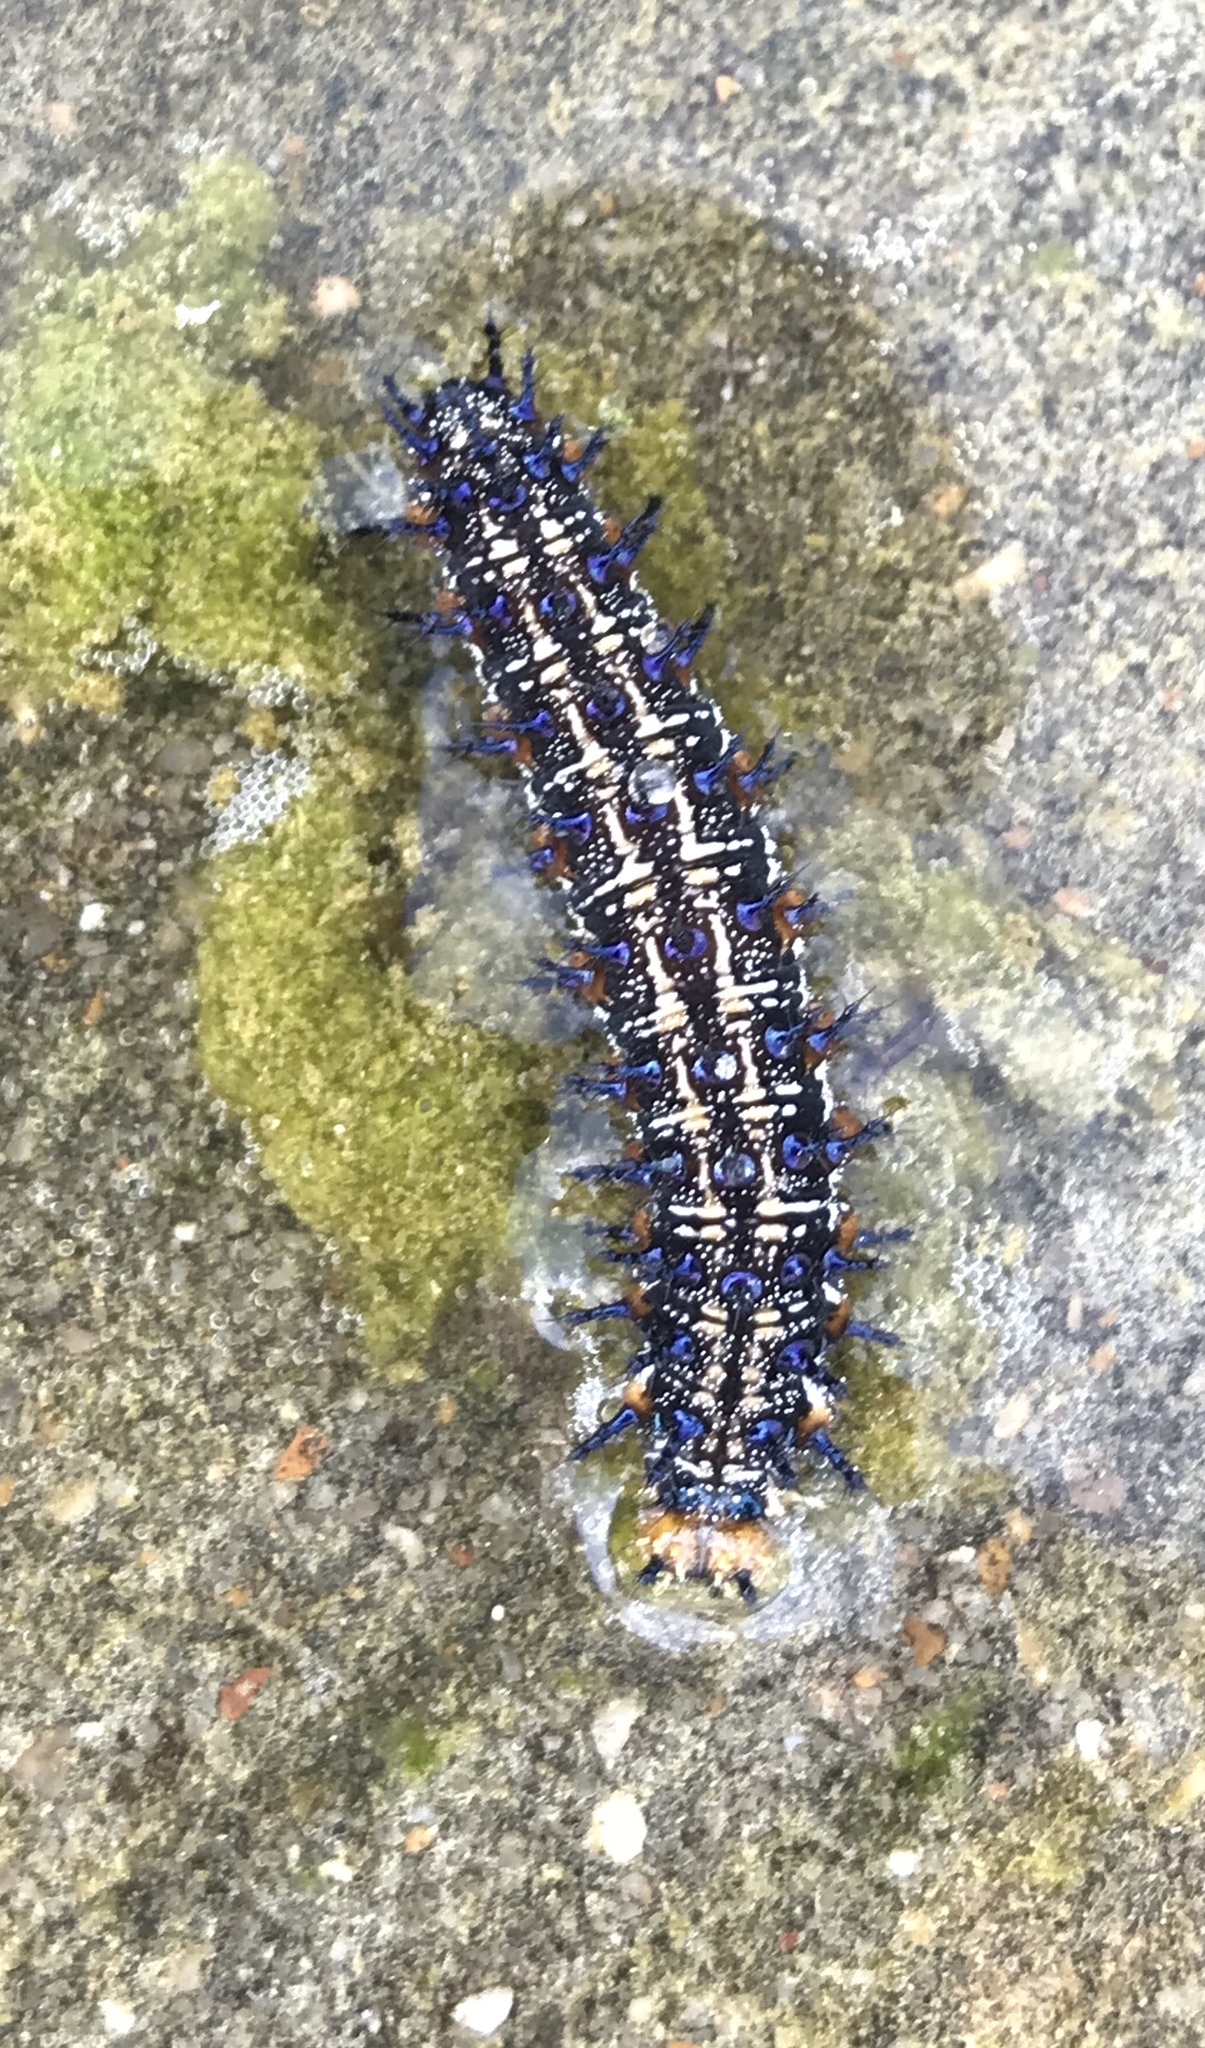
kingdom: Animalia
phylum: Arthropoda
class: Insecta
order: Lepidoptera
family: Nymphalidae
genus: Junonia
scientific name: Junonia coenia
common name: Common buckeye
